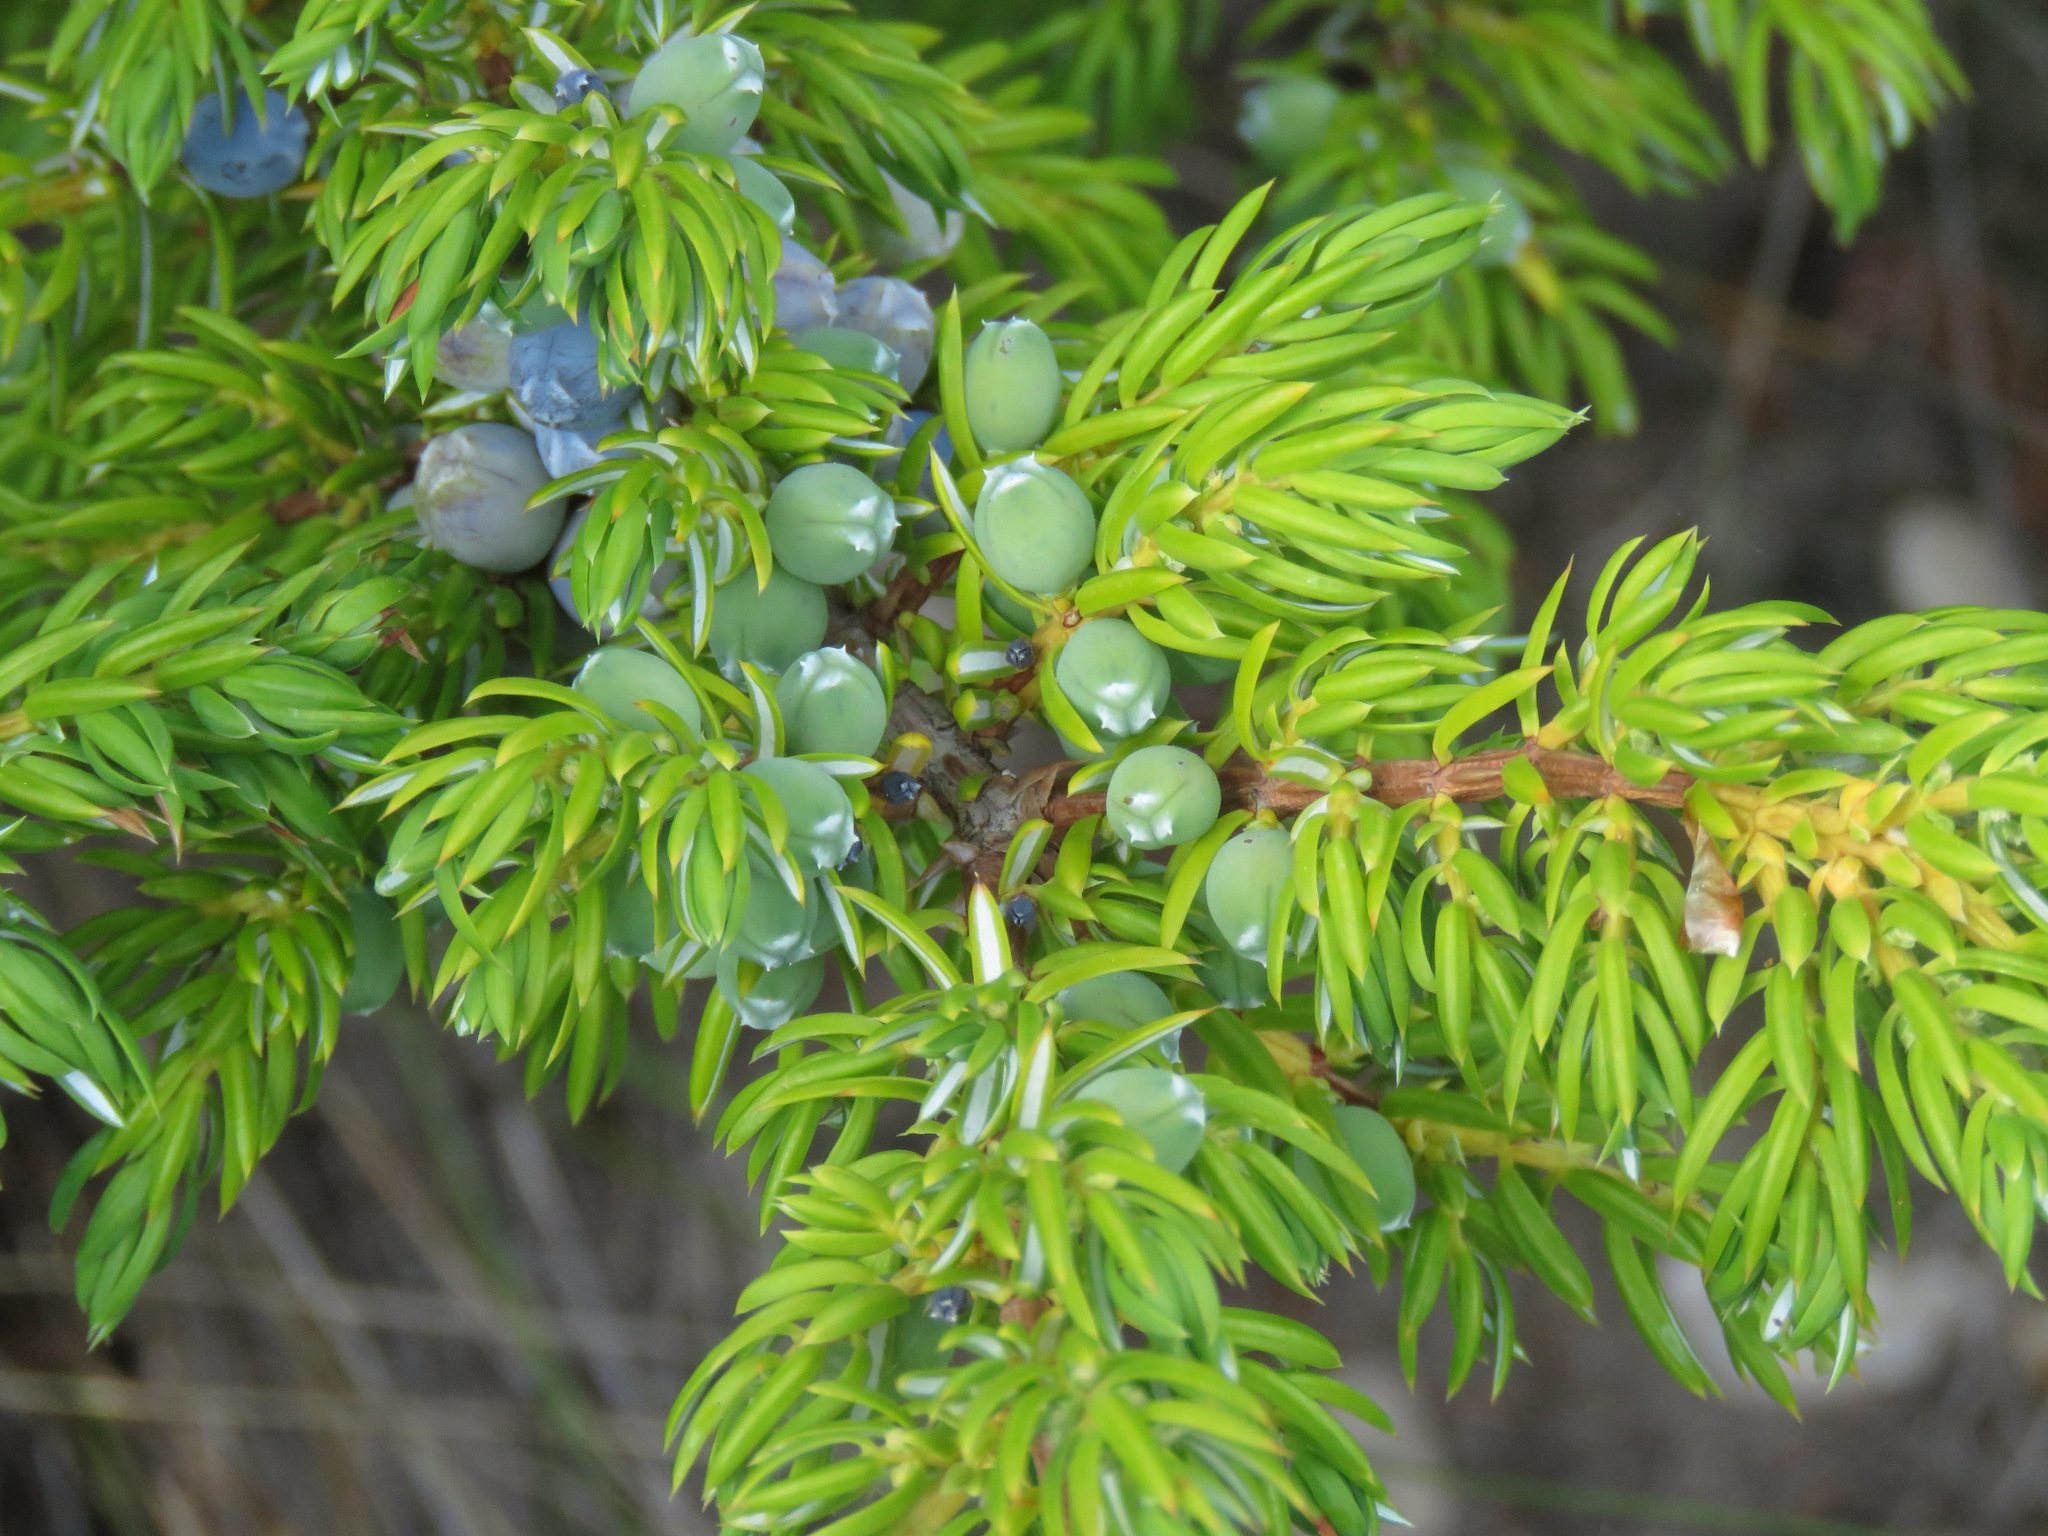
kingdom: Plantae
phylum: Tracheophyta
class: Pinopsida
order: Pinales
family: Cupressaceae
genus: Juniperus
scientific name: Juniperus communis
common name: Common juniper
